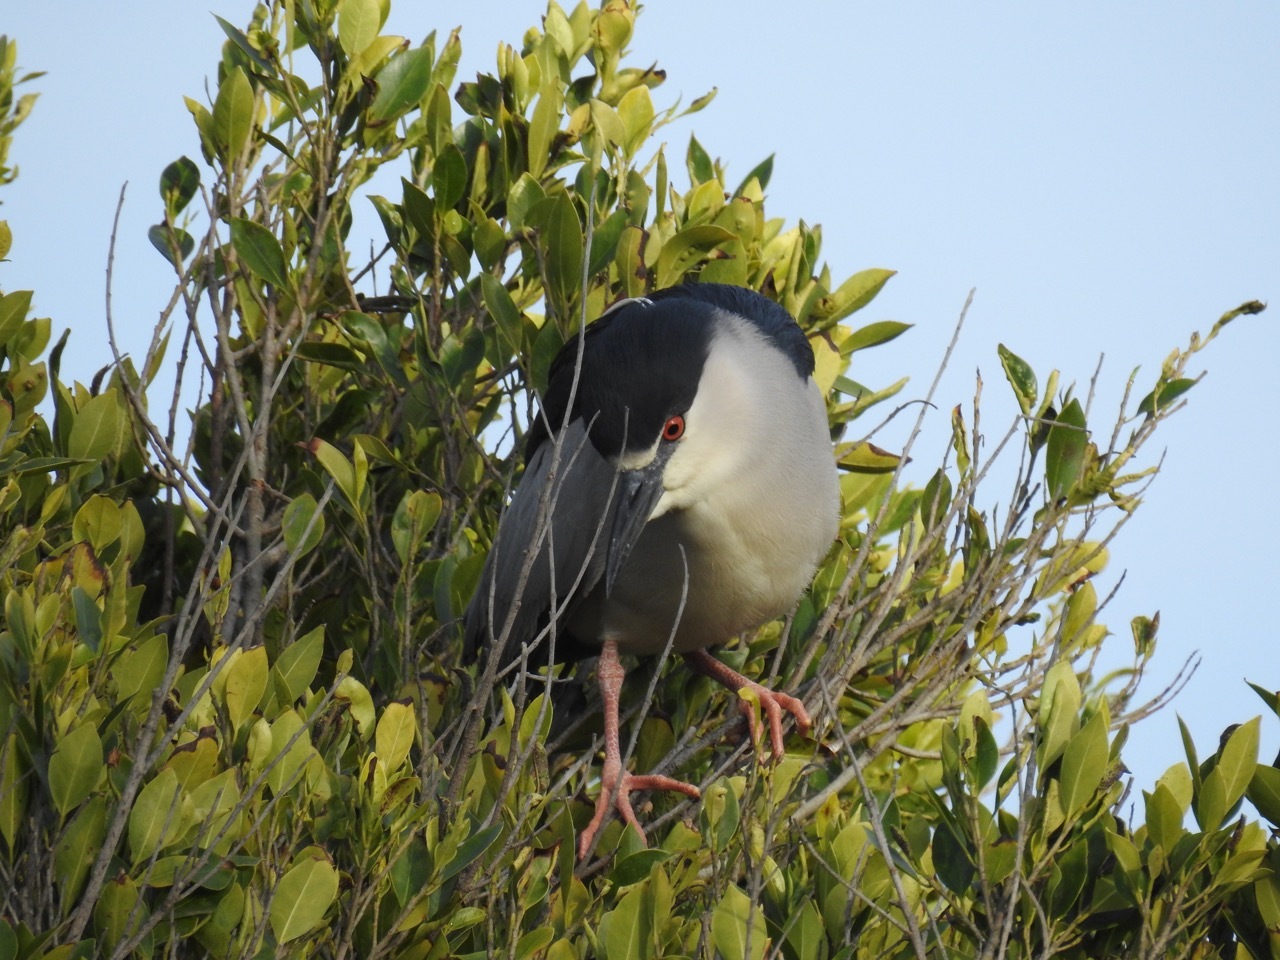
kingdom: Animalia
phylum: Chordata
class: Aves
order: Pelecaniformes
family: Ardeidae
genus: Nycticorax
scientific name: Nycticorax nycticorax
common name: Black-crowned night heron
